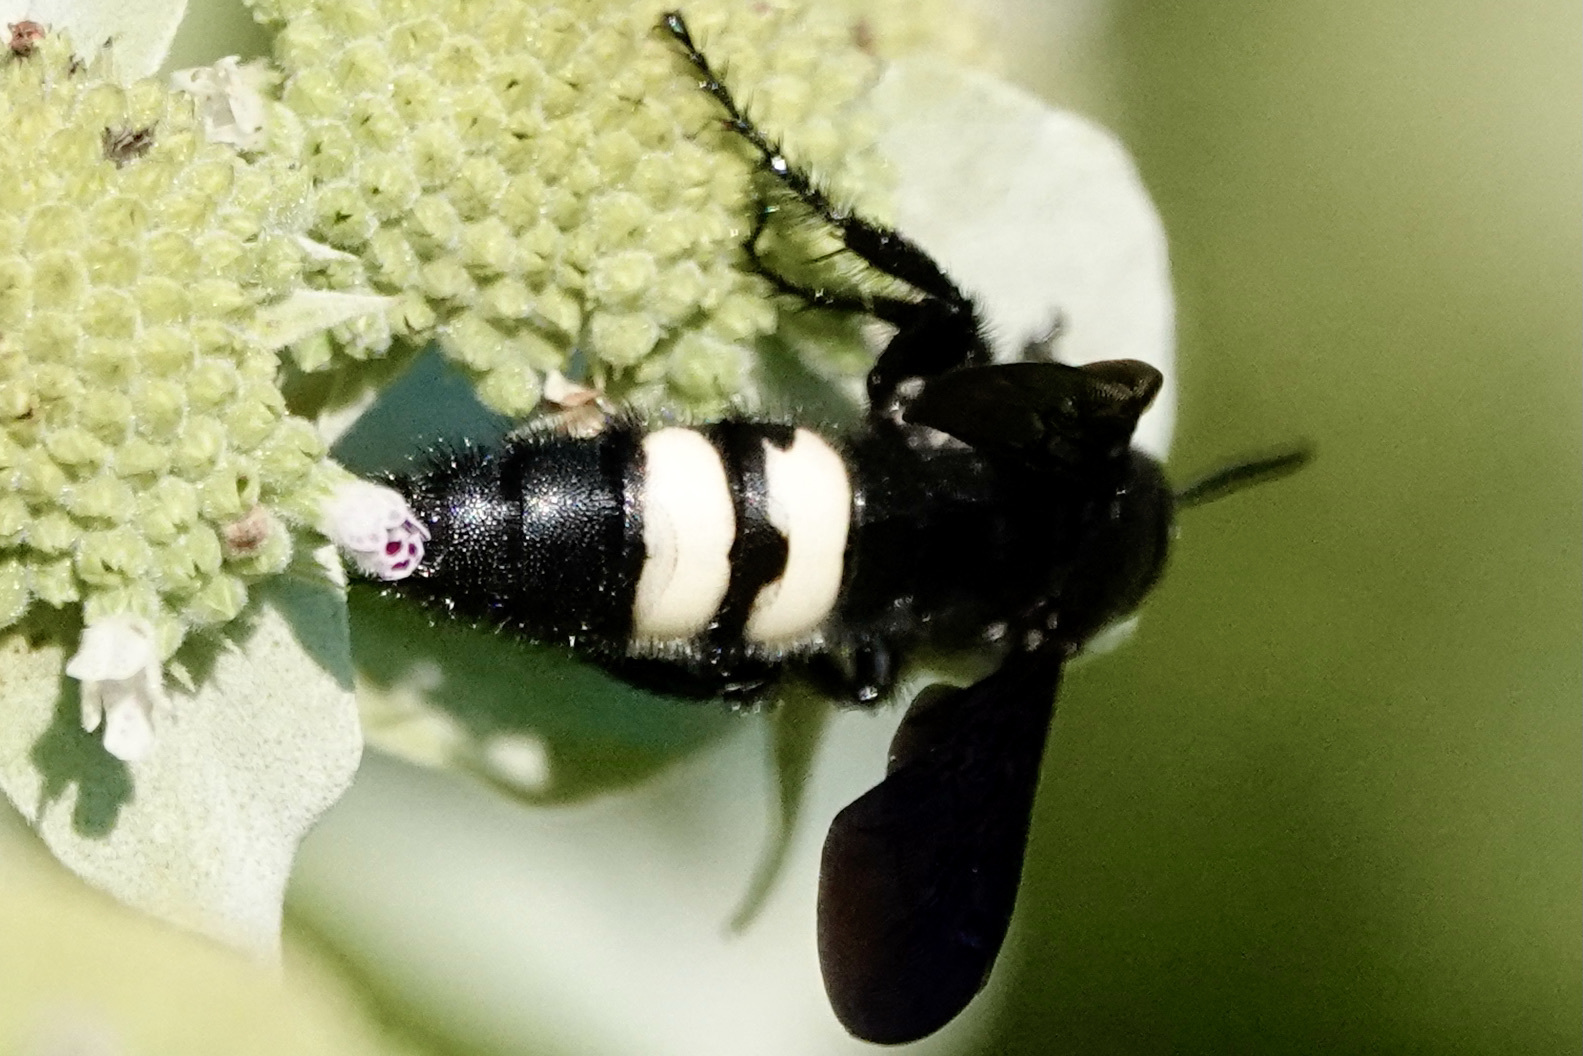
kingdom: Animalia
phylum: Arthropoda
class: Insecta
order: Hymenoptera
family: Scoliidae
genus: Scolia
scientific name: Scolia bicincta
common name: Double-banded scoliid wasp
